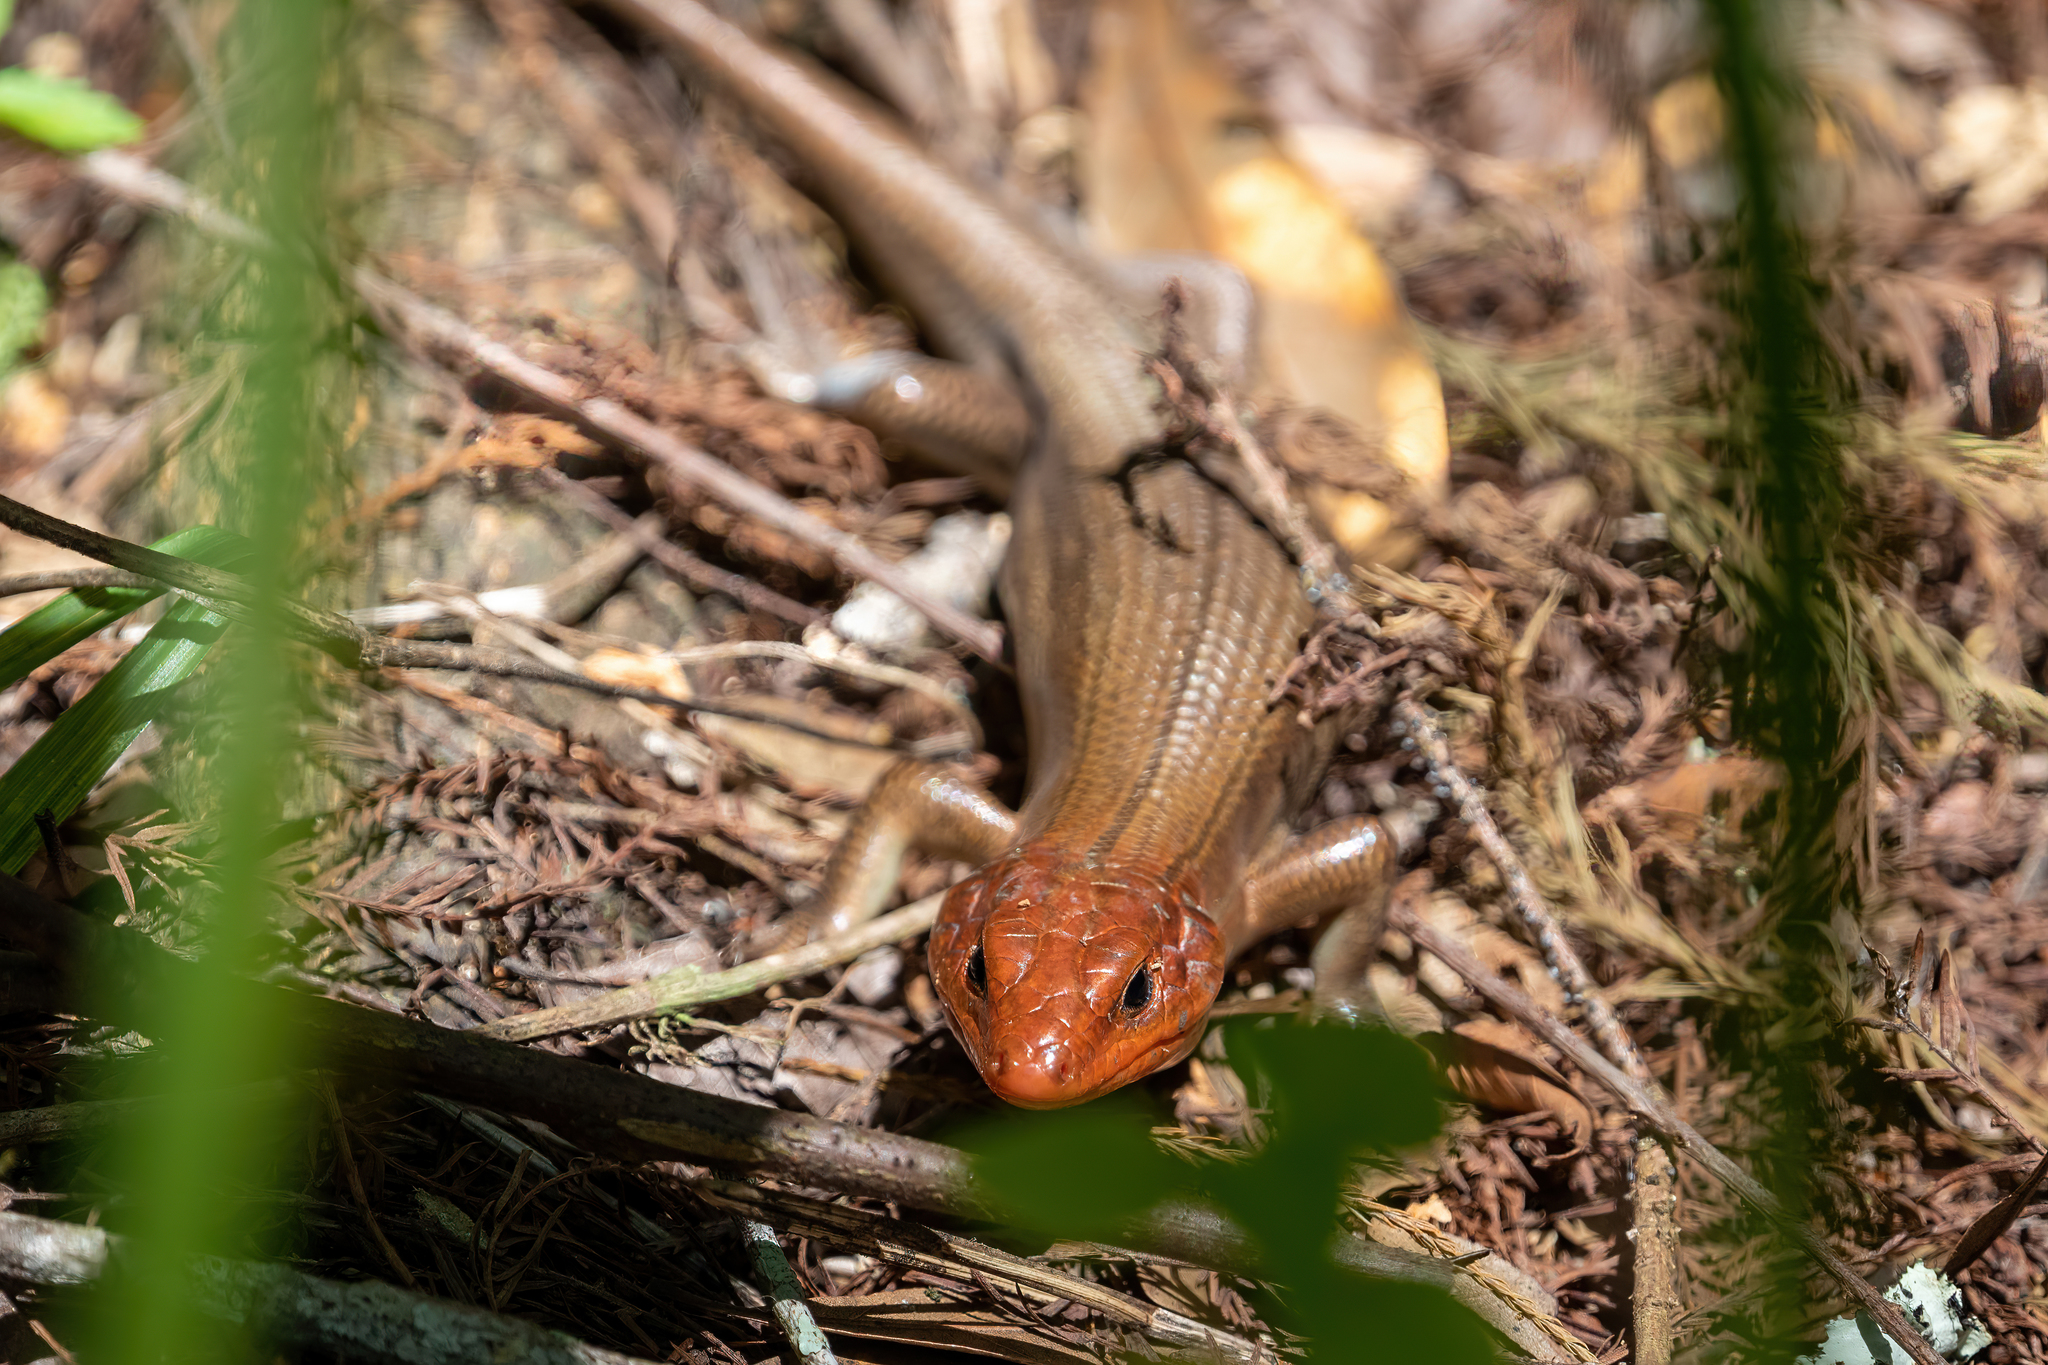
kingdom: Animalia
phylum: Chordata
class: Squamata
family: Scincidae
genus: Plestiodon
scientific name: Plestiodon laticeps
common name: Broadhead skink
